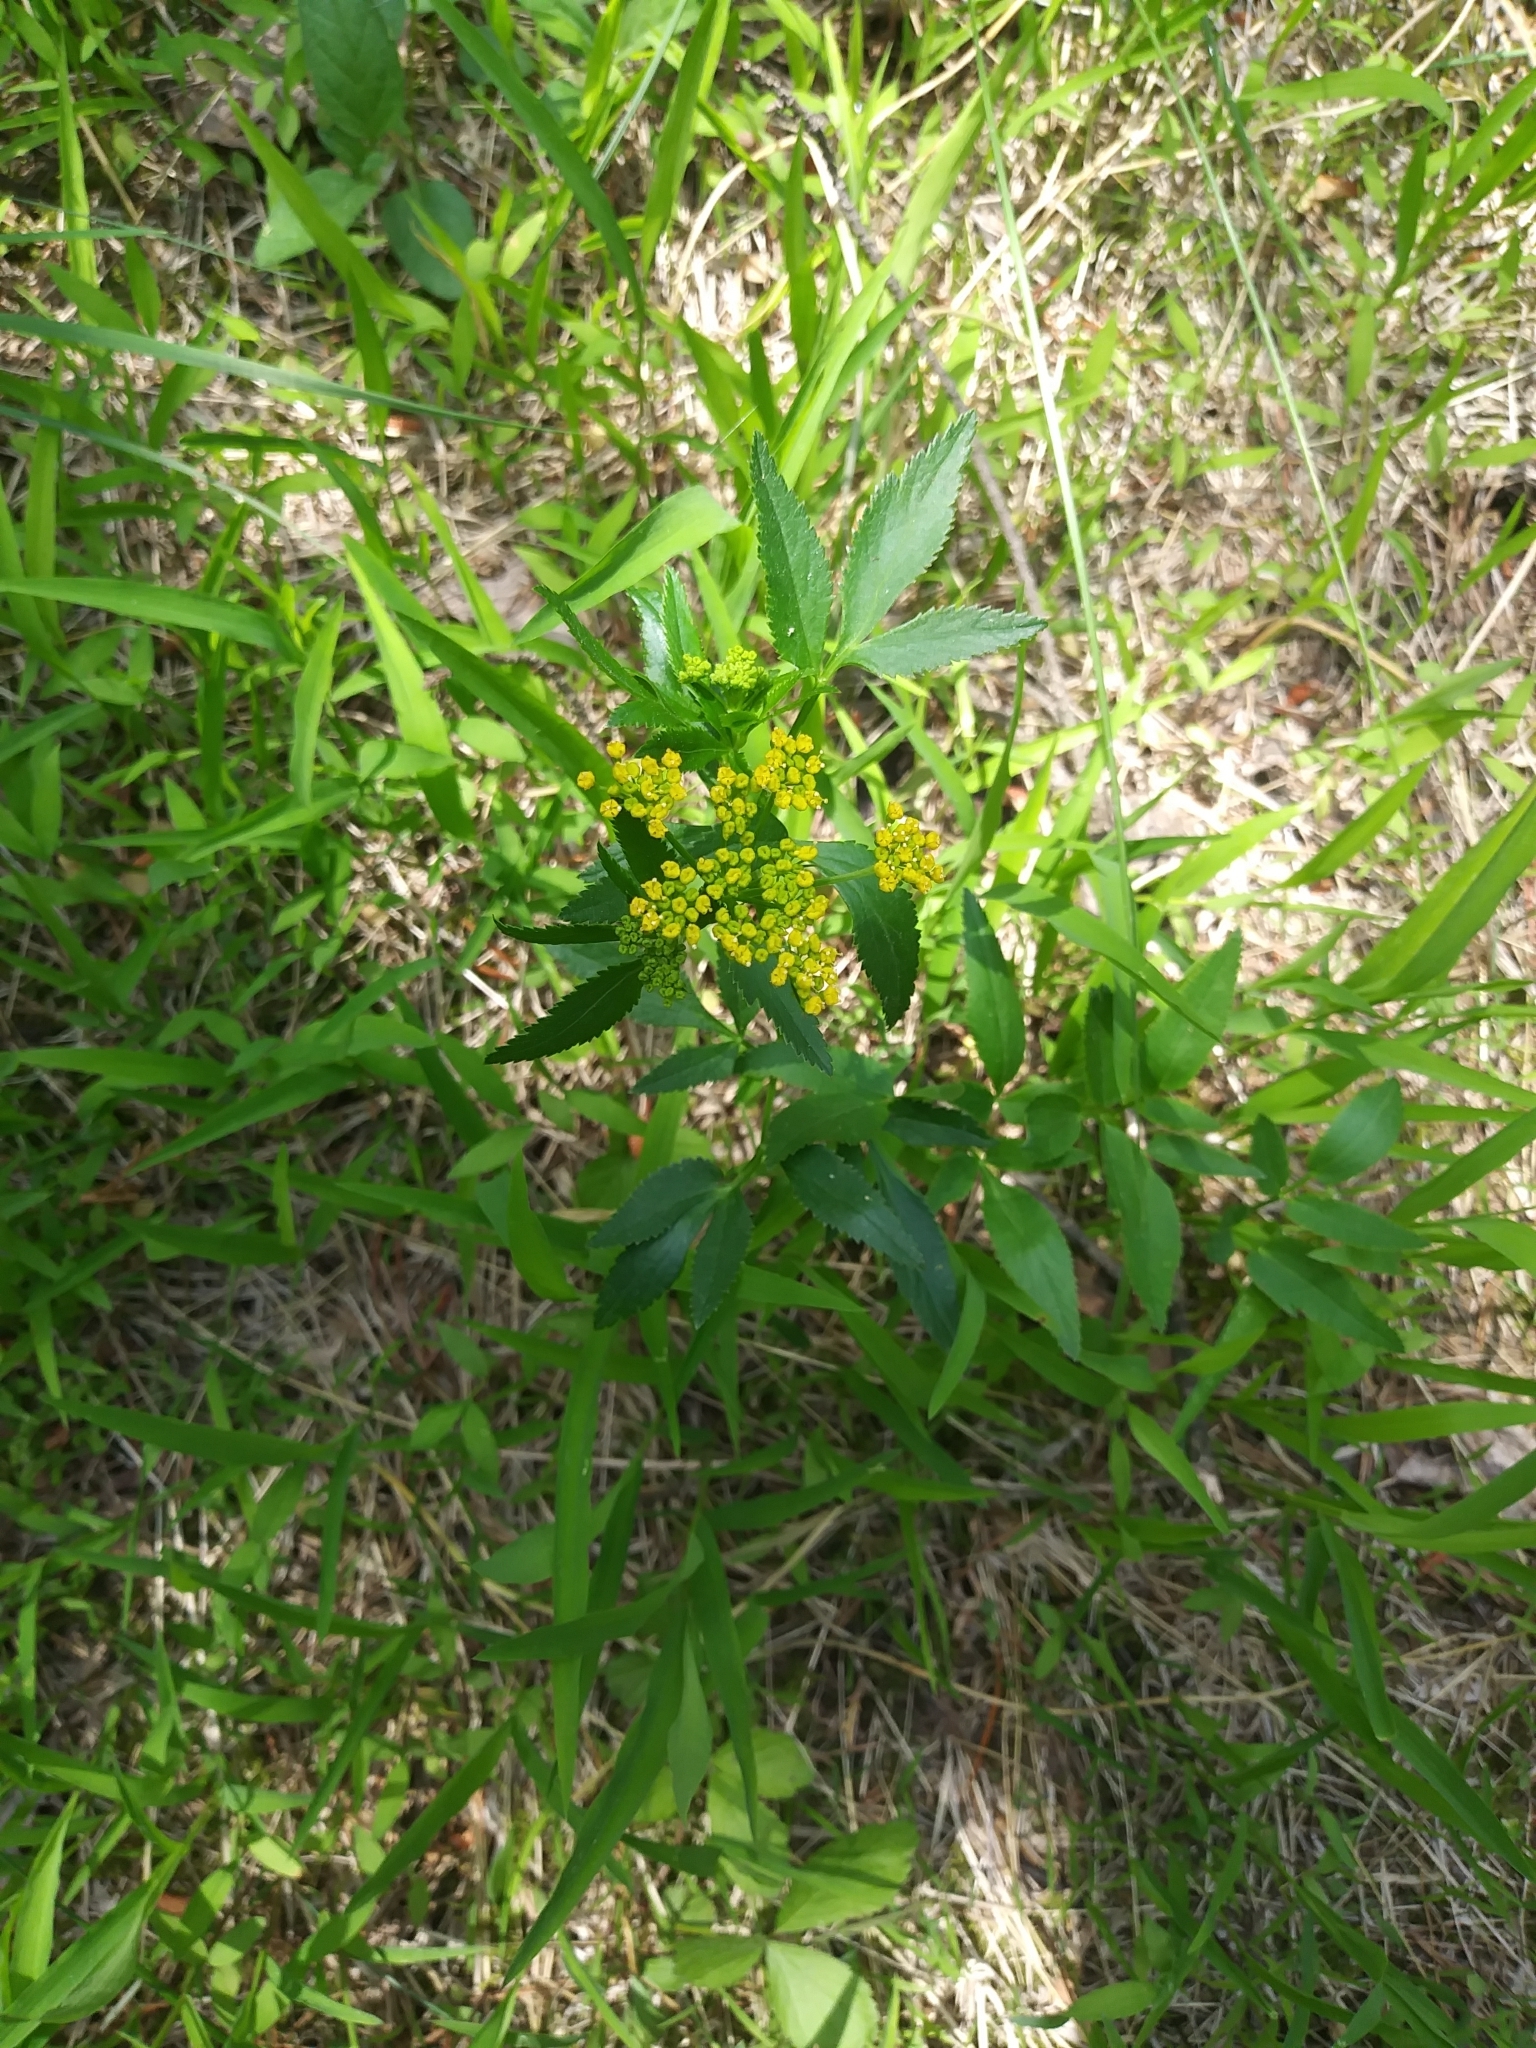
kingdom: Plantae
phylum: Tracheophyta
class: Magnoliopsida
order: Apiales
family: Apiaceae
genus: Zizia
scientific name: Zizia aurea
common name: Golden alexanders
